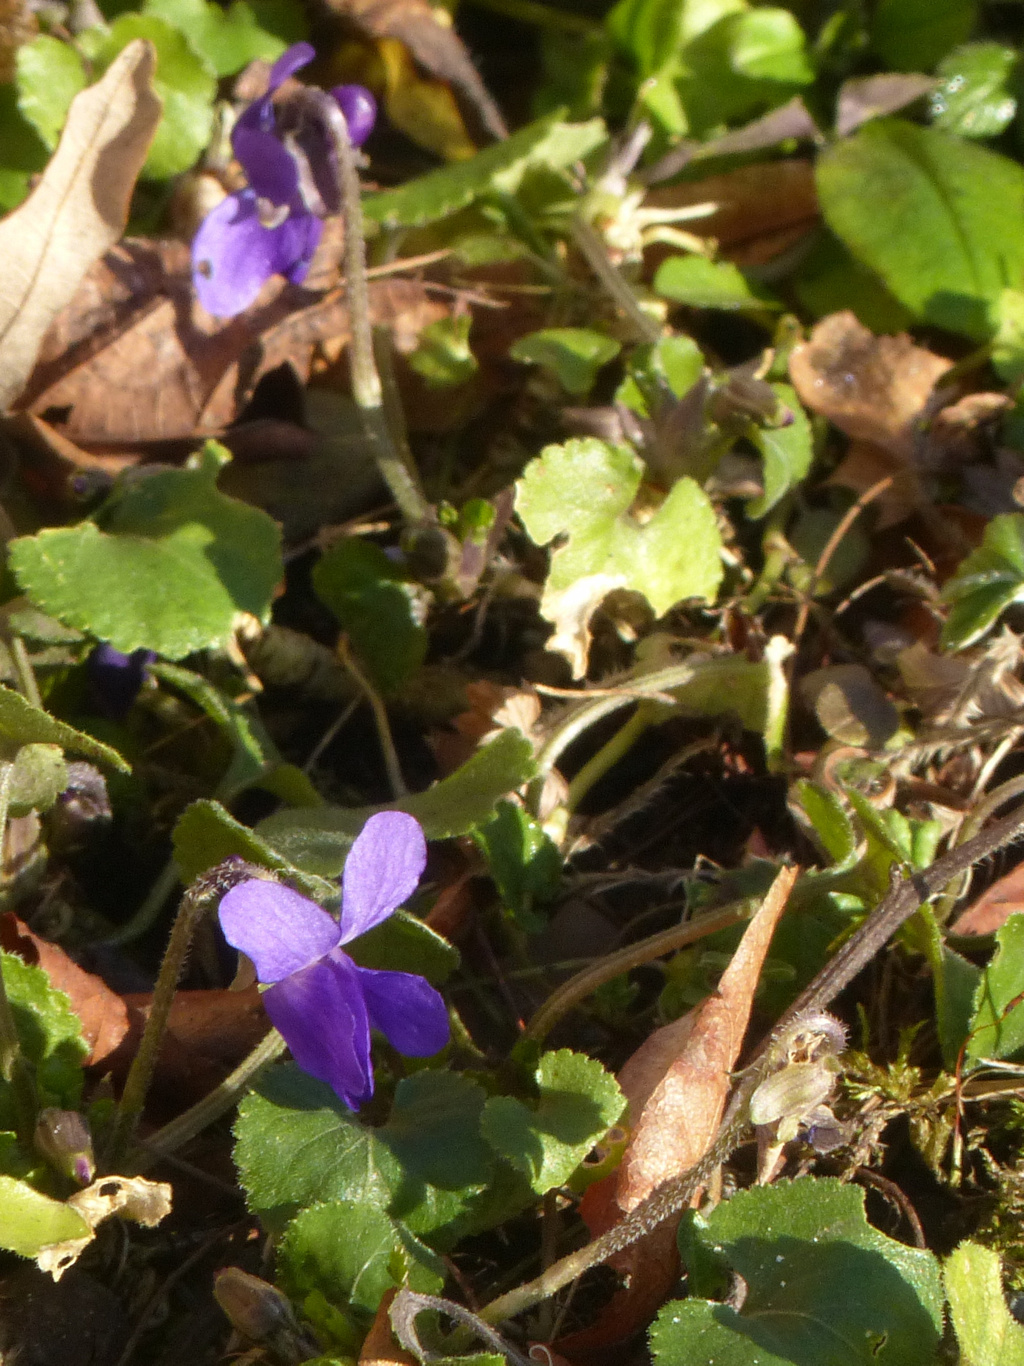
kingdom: Plantae
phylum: Tracheophyta
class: Magnoliopsida
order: Malpighiales
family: Violaceae
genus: Viola
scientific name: Viola odorata
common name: Sweet violet
